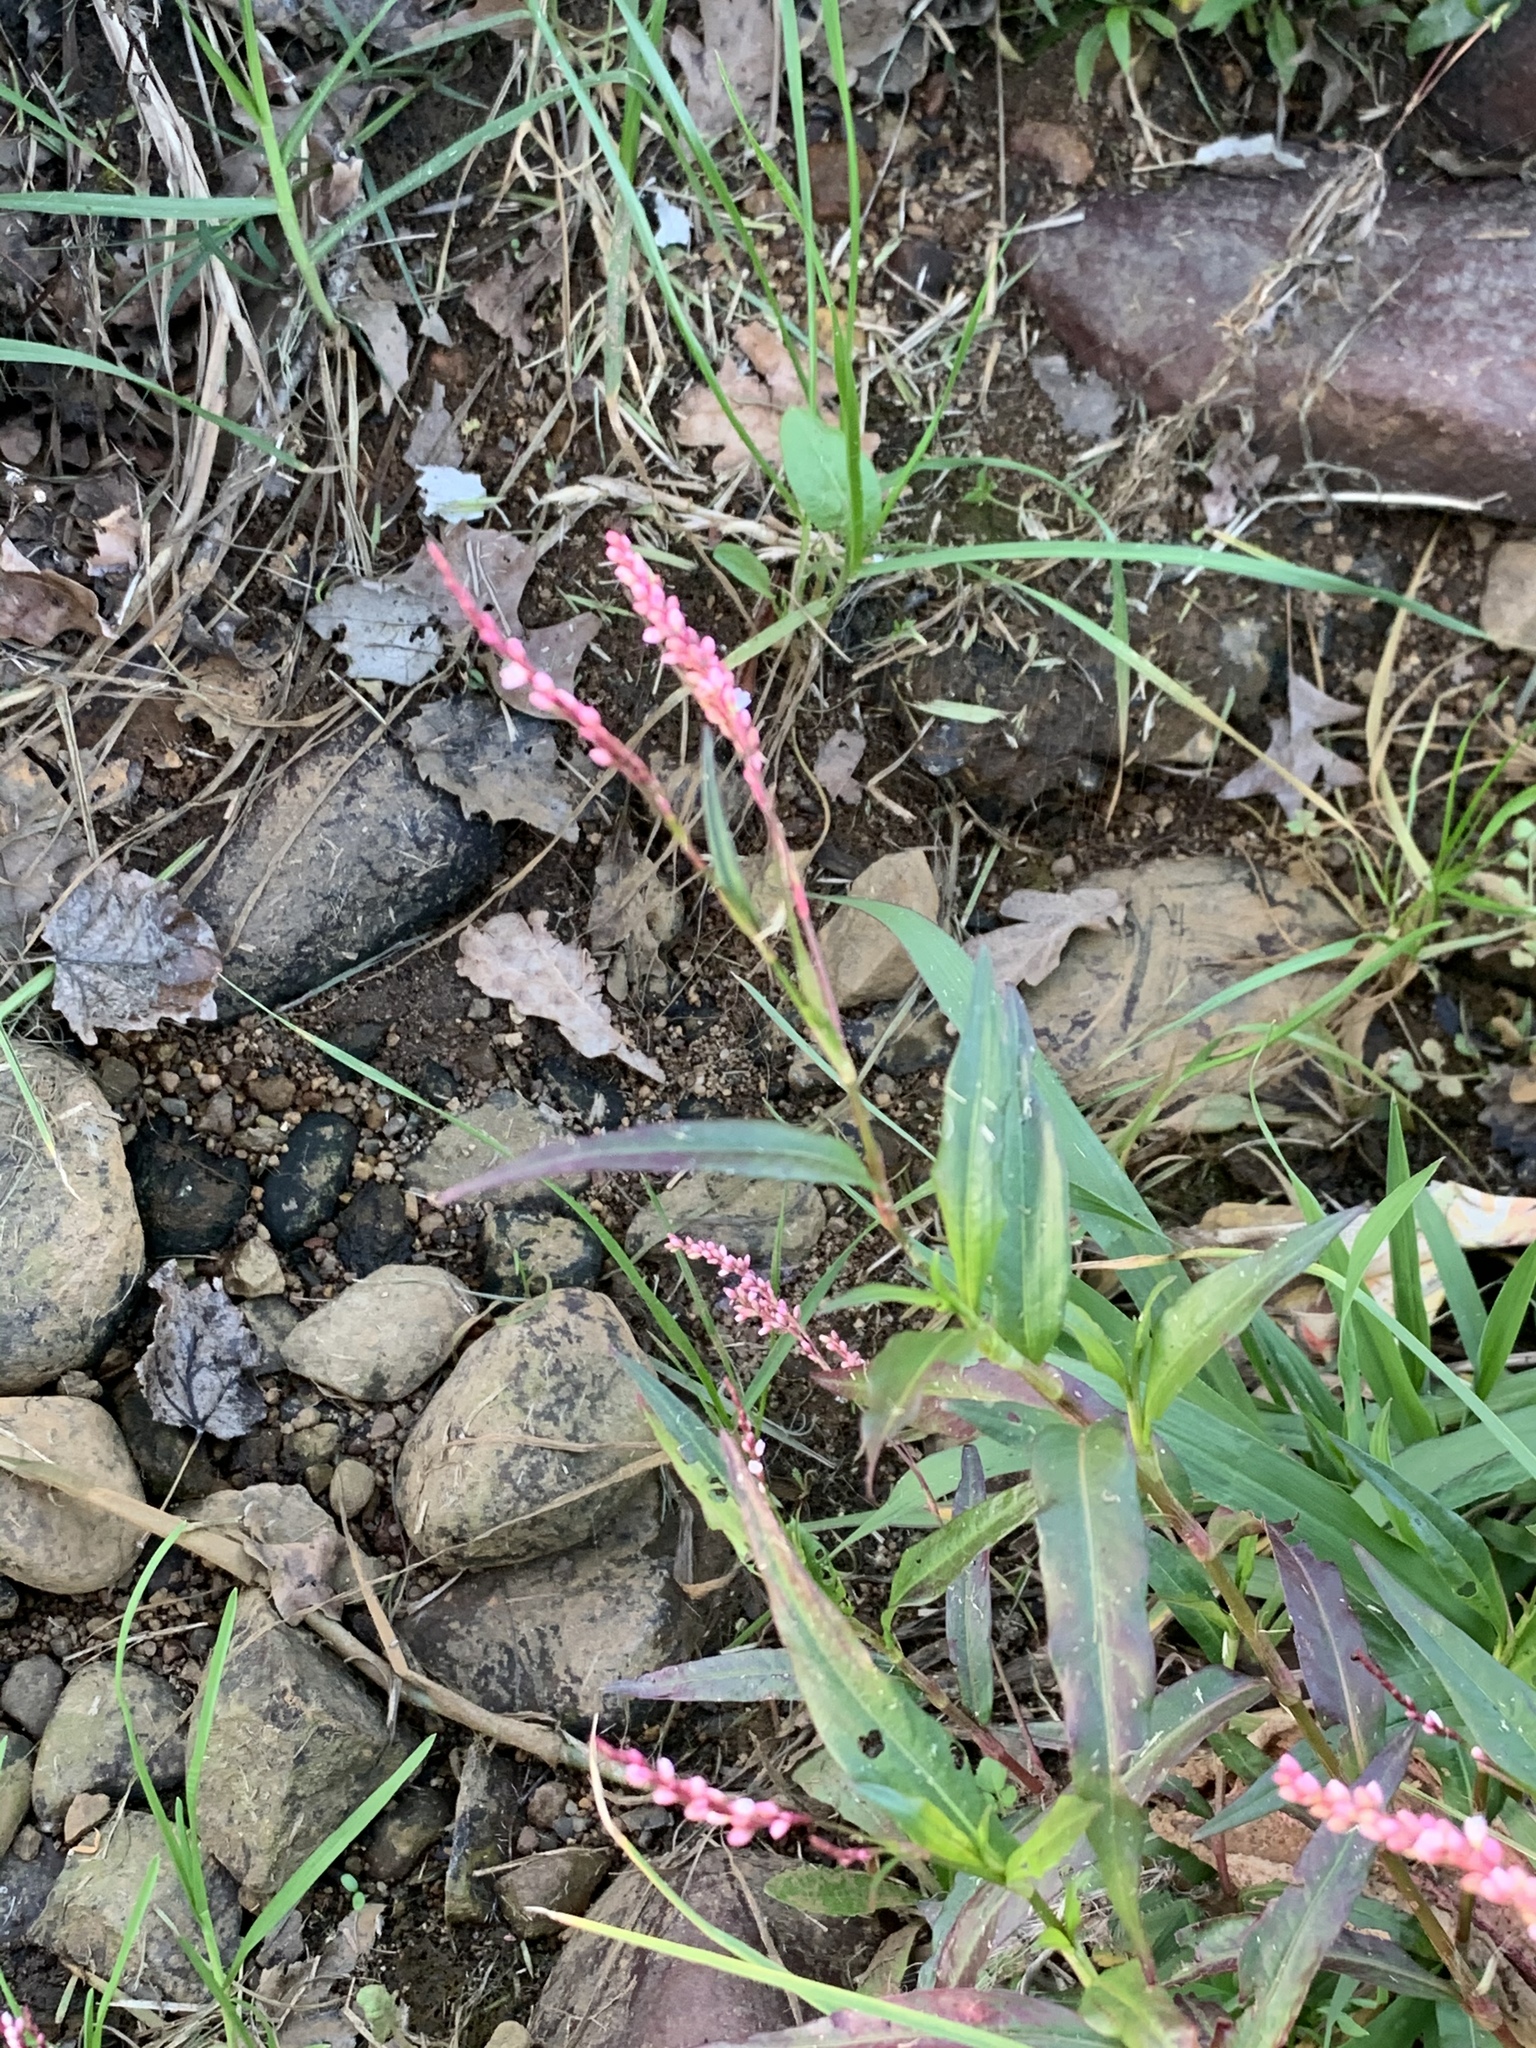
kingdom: Plantae
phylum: Tracheophyta
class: Magnoliopsida
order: Caryophyllales
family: Polygonaceae
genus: Persicaria
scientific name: Persicaria decipiens
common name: Willow-weed
